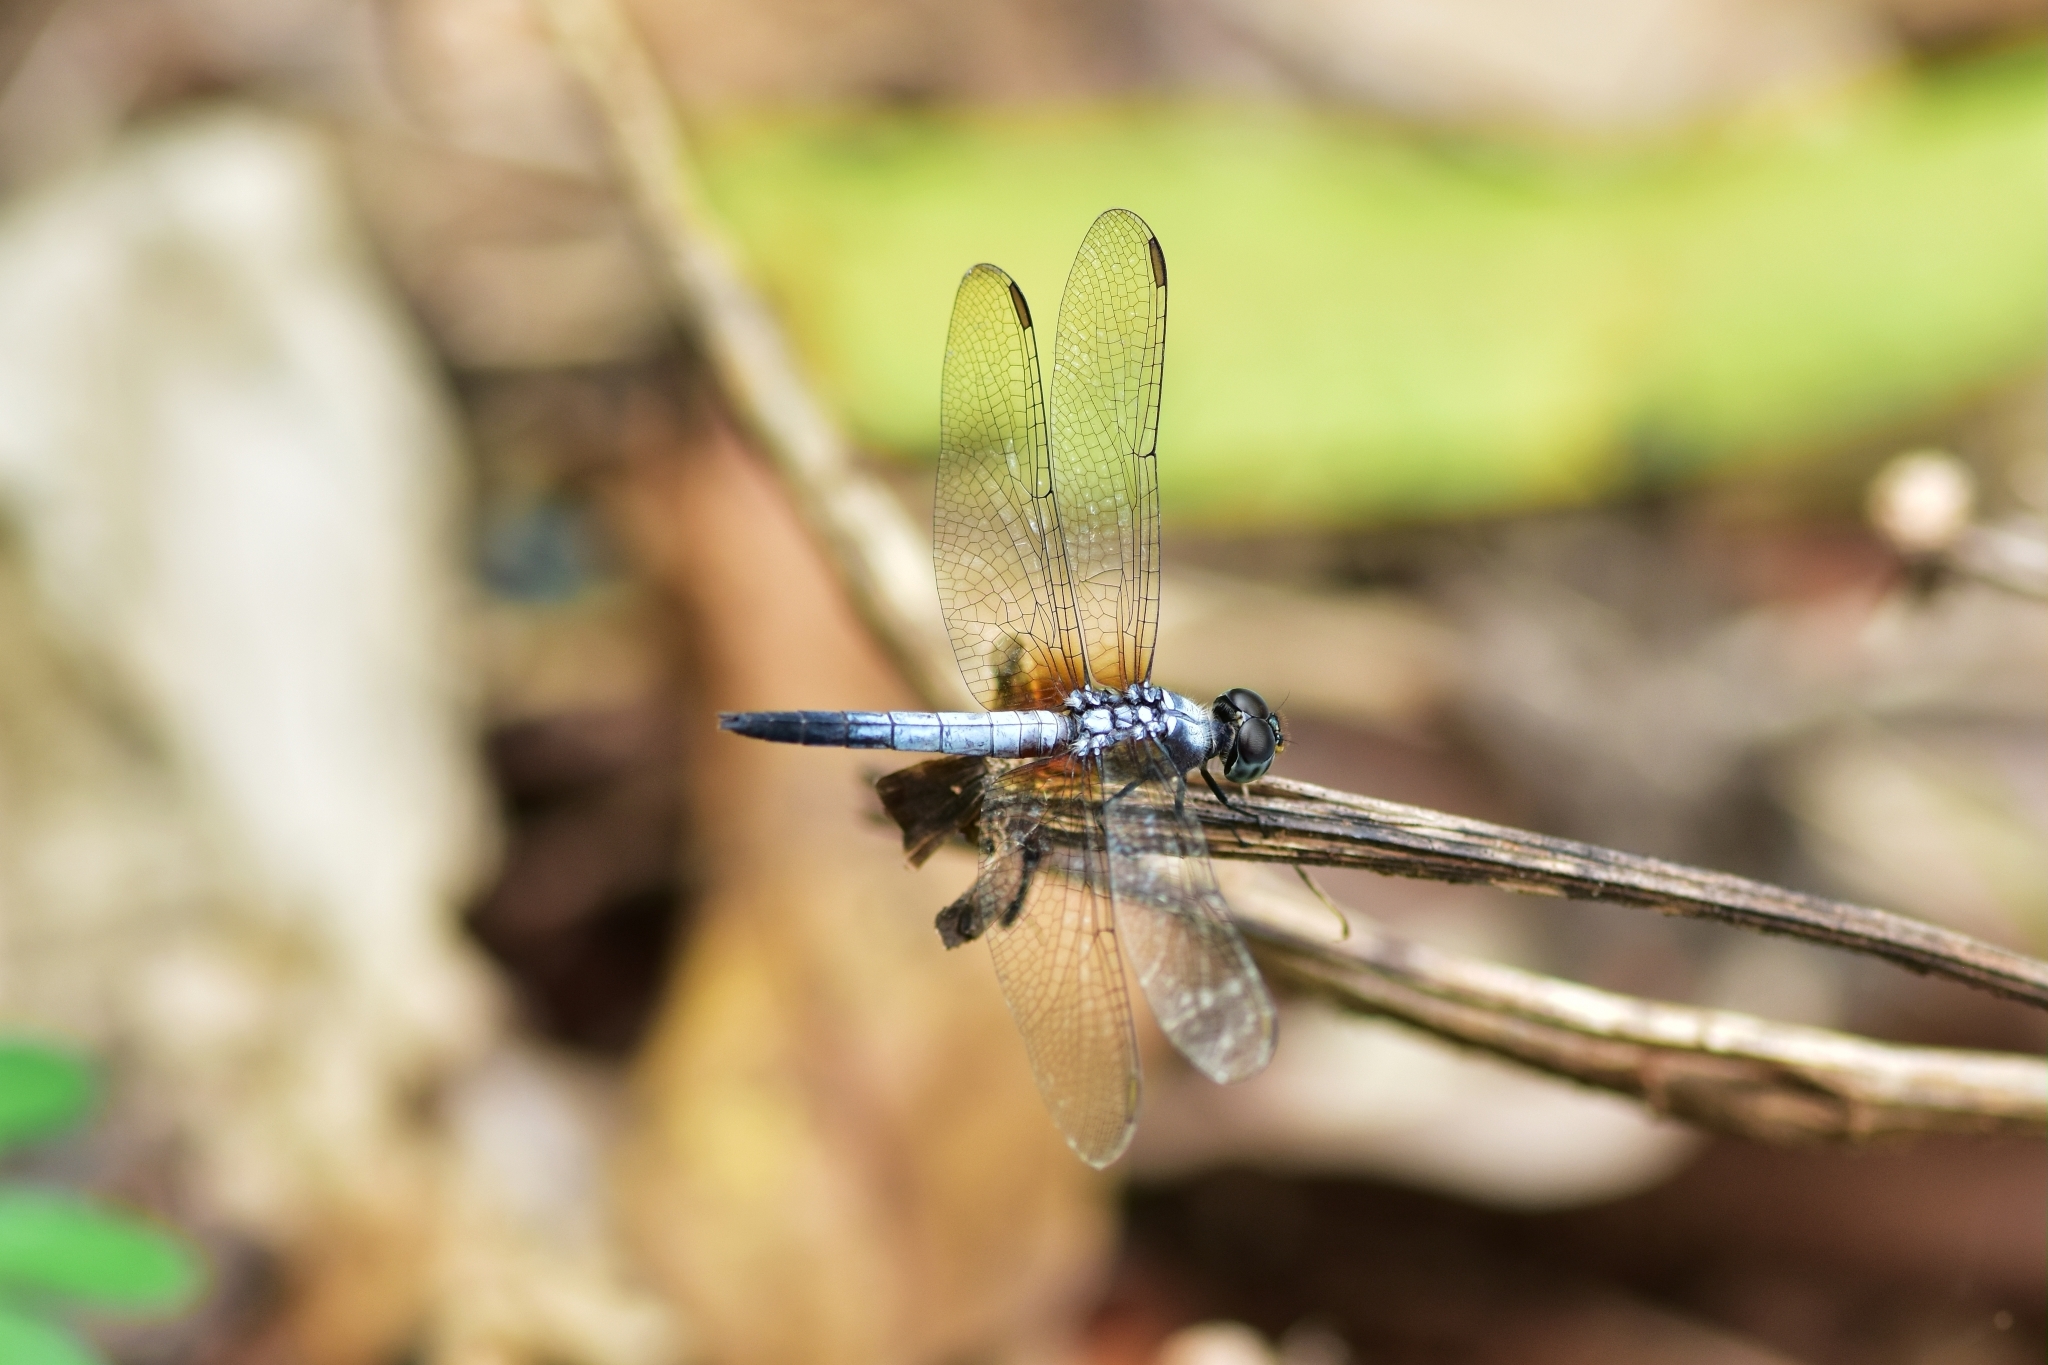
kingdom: Animalia
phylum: Arthropoda
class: Insecta
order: Odonata
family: Libellulidae
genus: Brachydiplax
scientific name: Brachydiplax chalybea
